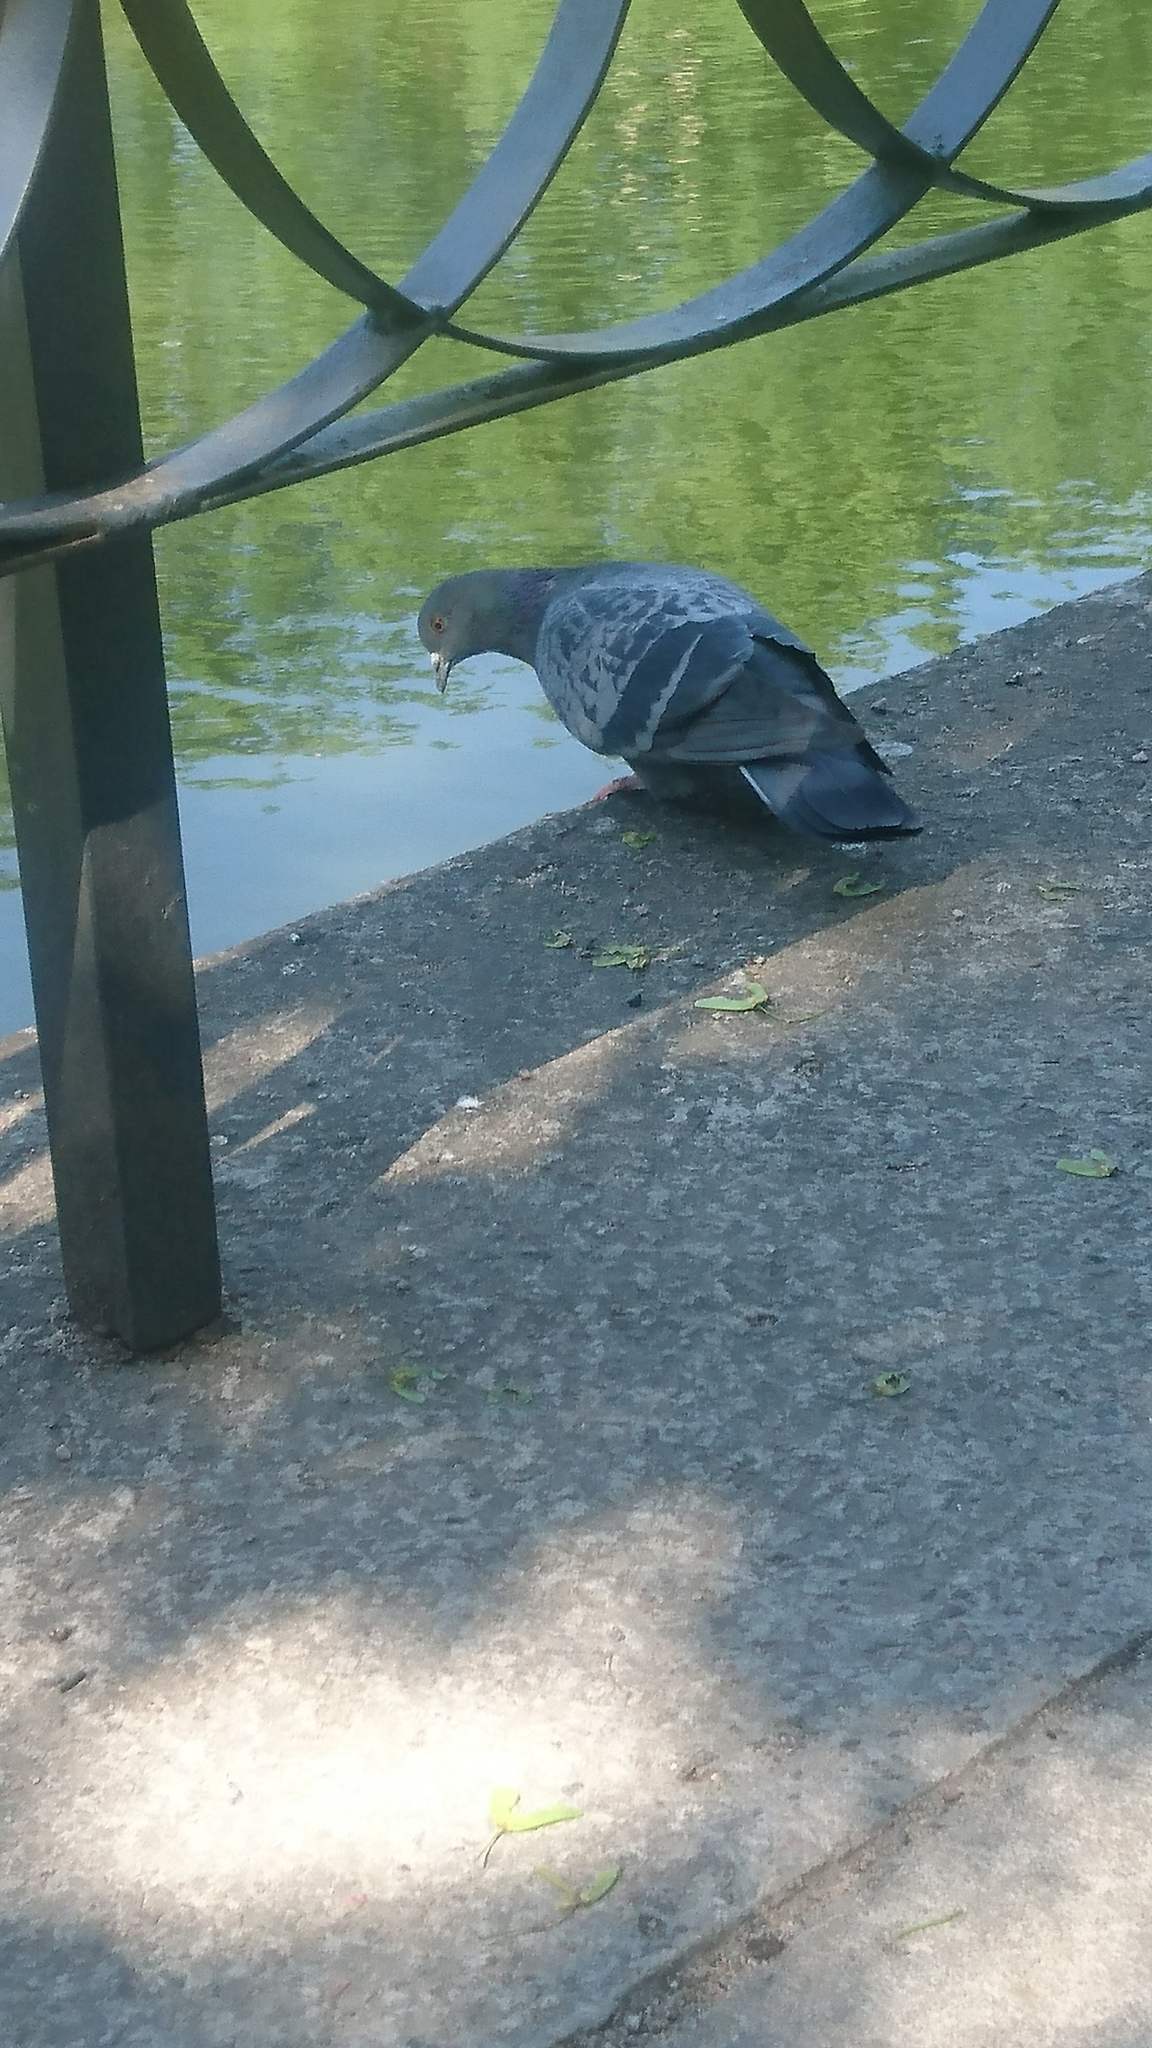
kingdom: Animalia
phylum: Chordata
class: Aves
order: Columbiformes
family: Columbidae
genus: Columba
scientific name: Columba livia
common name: Rock pigeon
